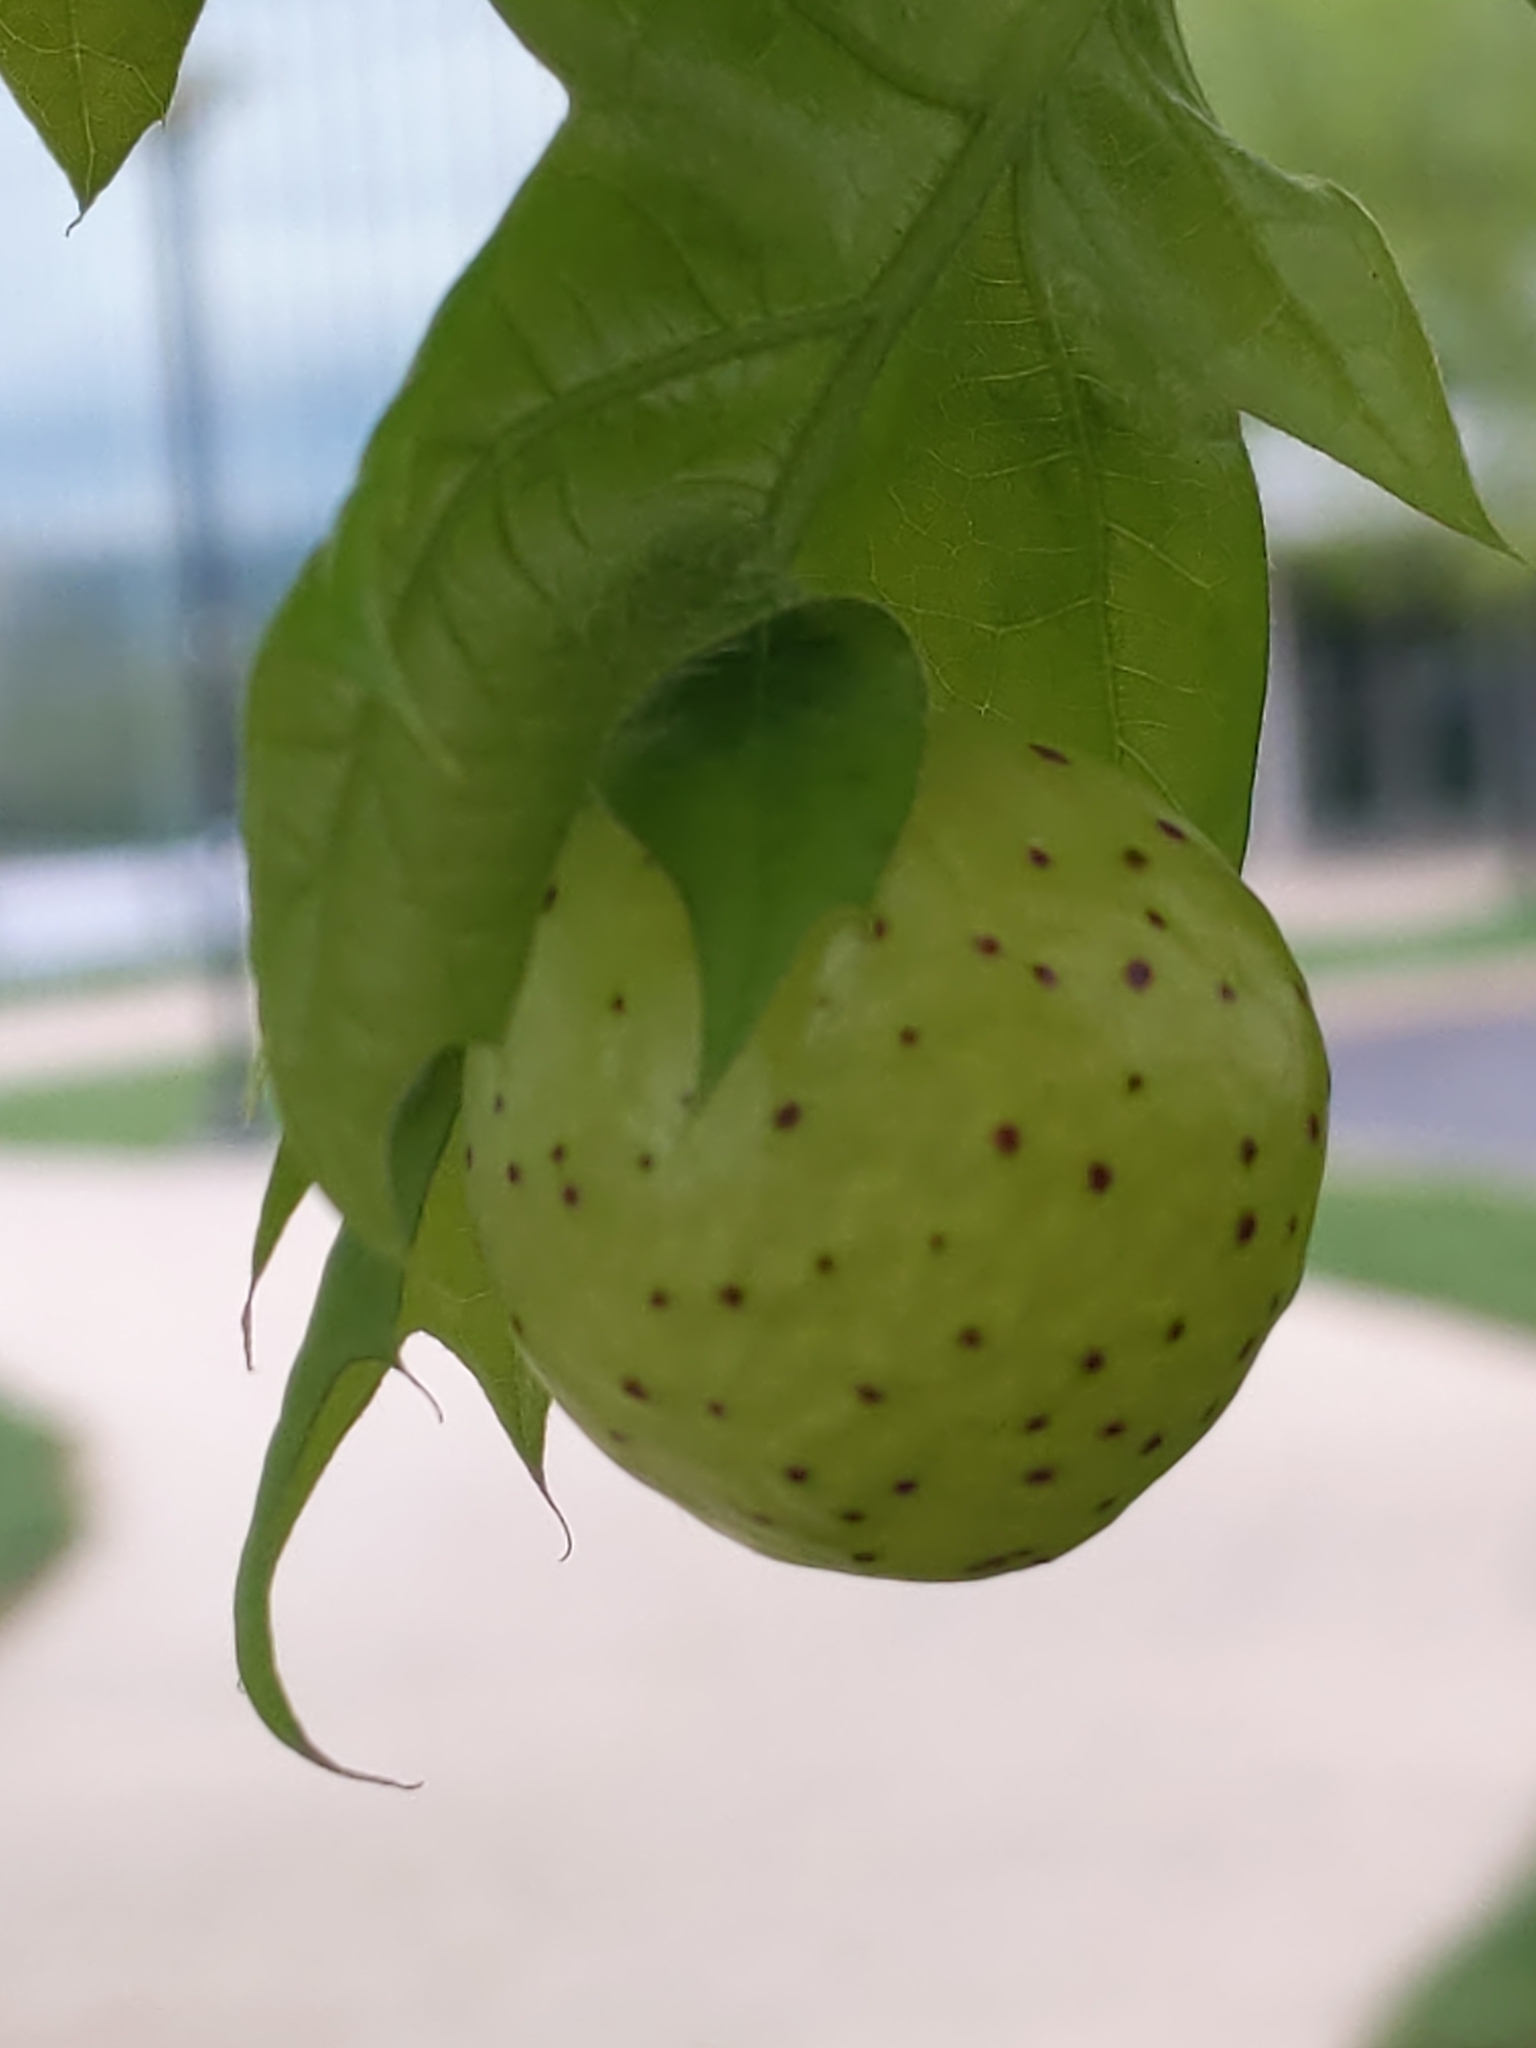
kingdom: Animalia
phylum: Arthropoda
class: Insecta
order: Hymenoptera
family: Cynipidae
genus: Amphibolips
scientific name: Amphibolips
